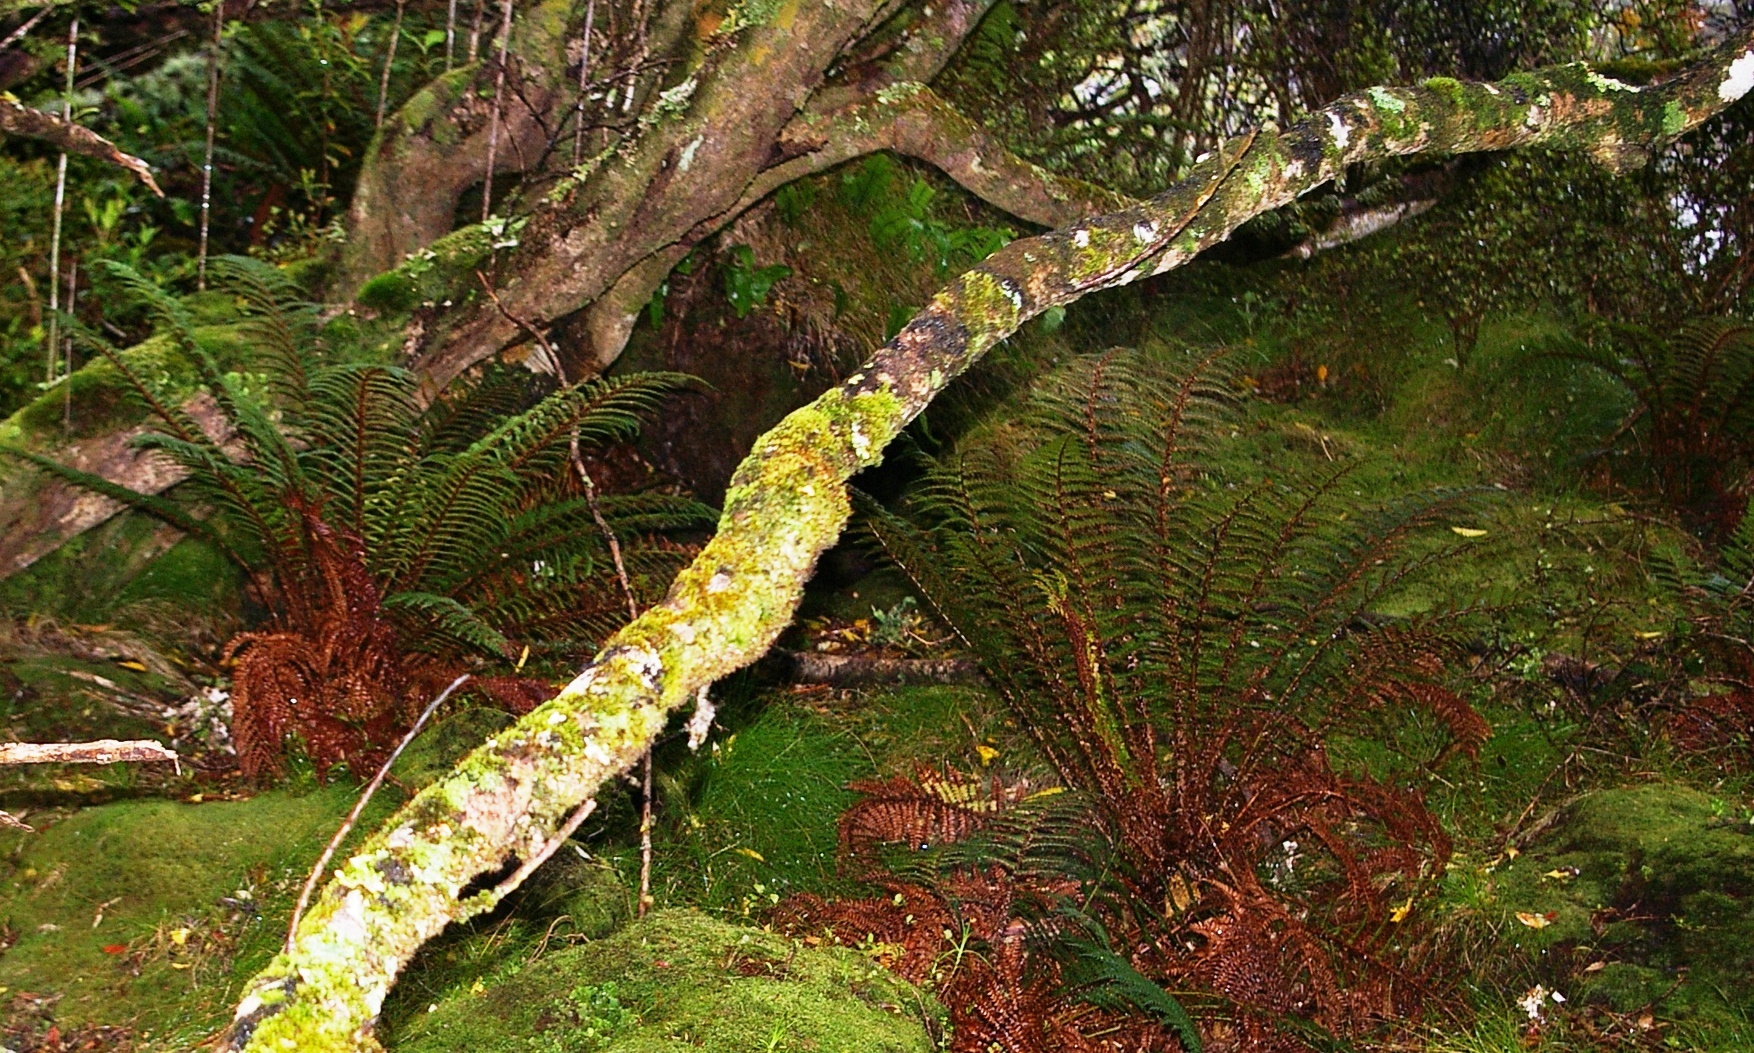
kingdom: Plantae
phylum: Tracheophyta
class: Polypodiopsida
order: Polypodiales
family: Dryopteridaceae
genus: Polystichum
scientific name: Polystichum vestitum
